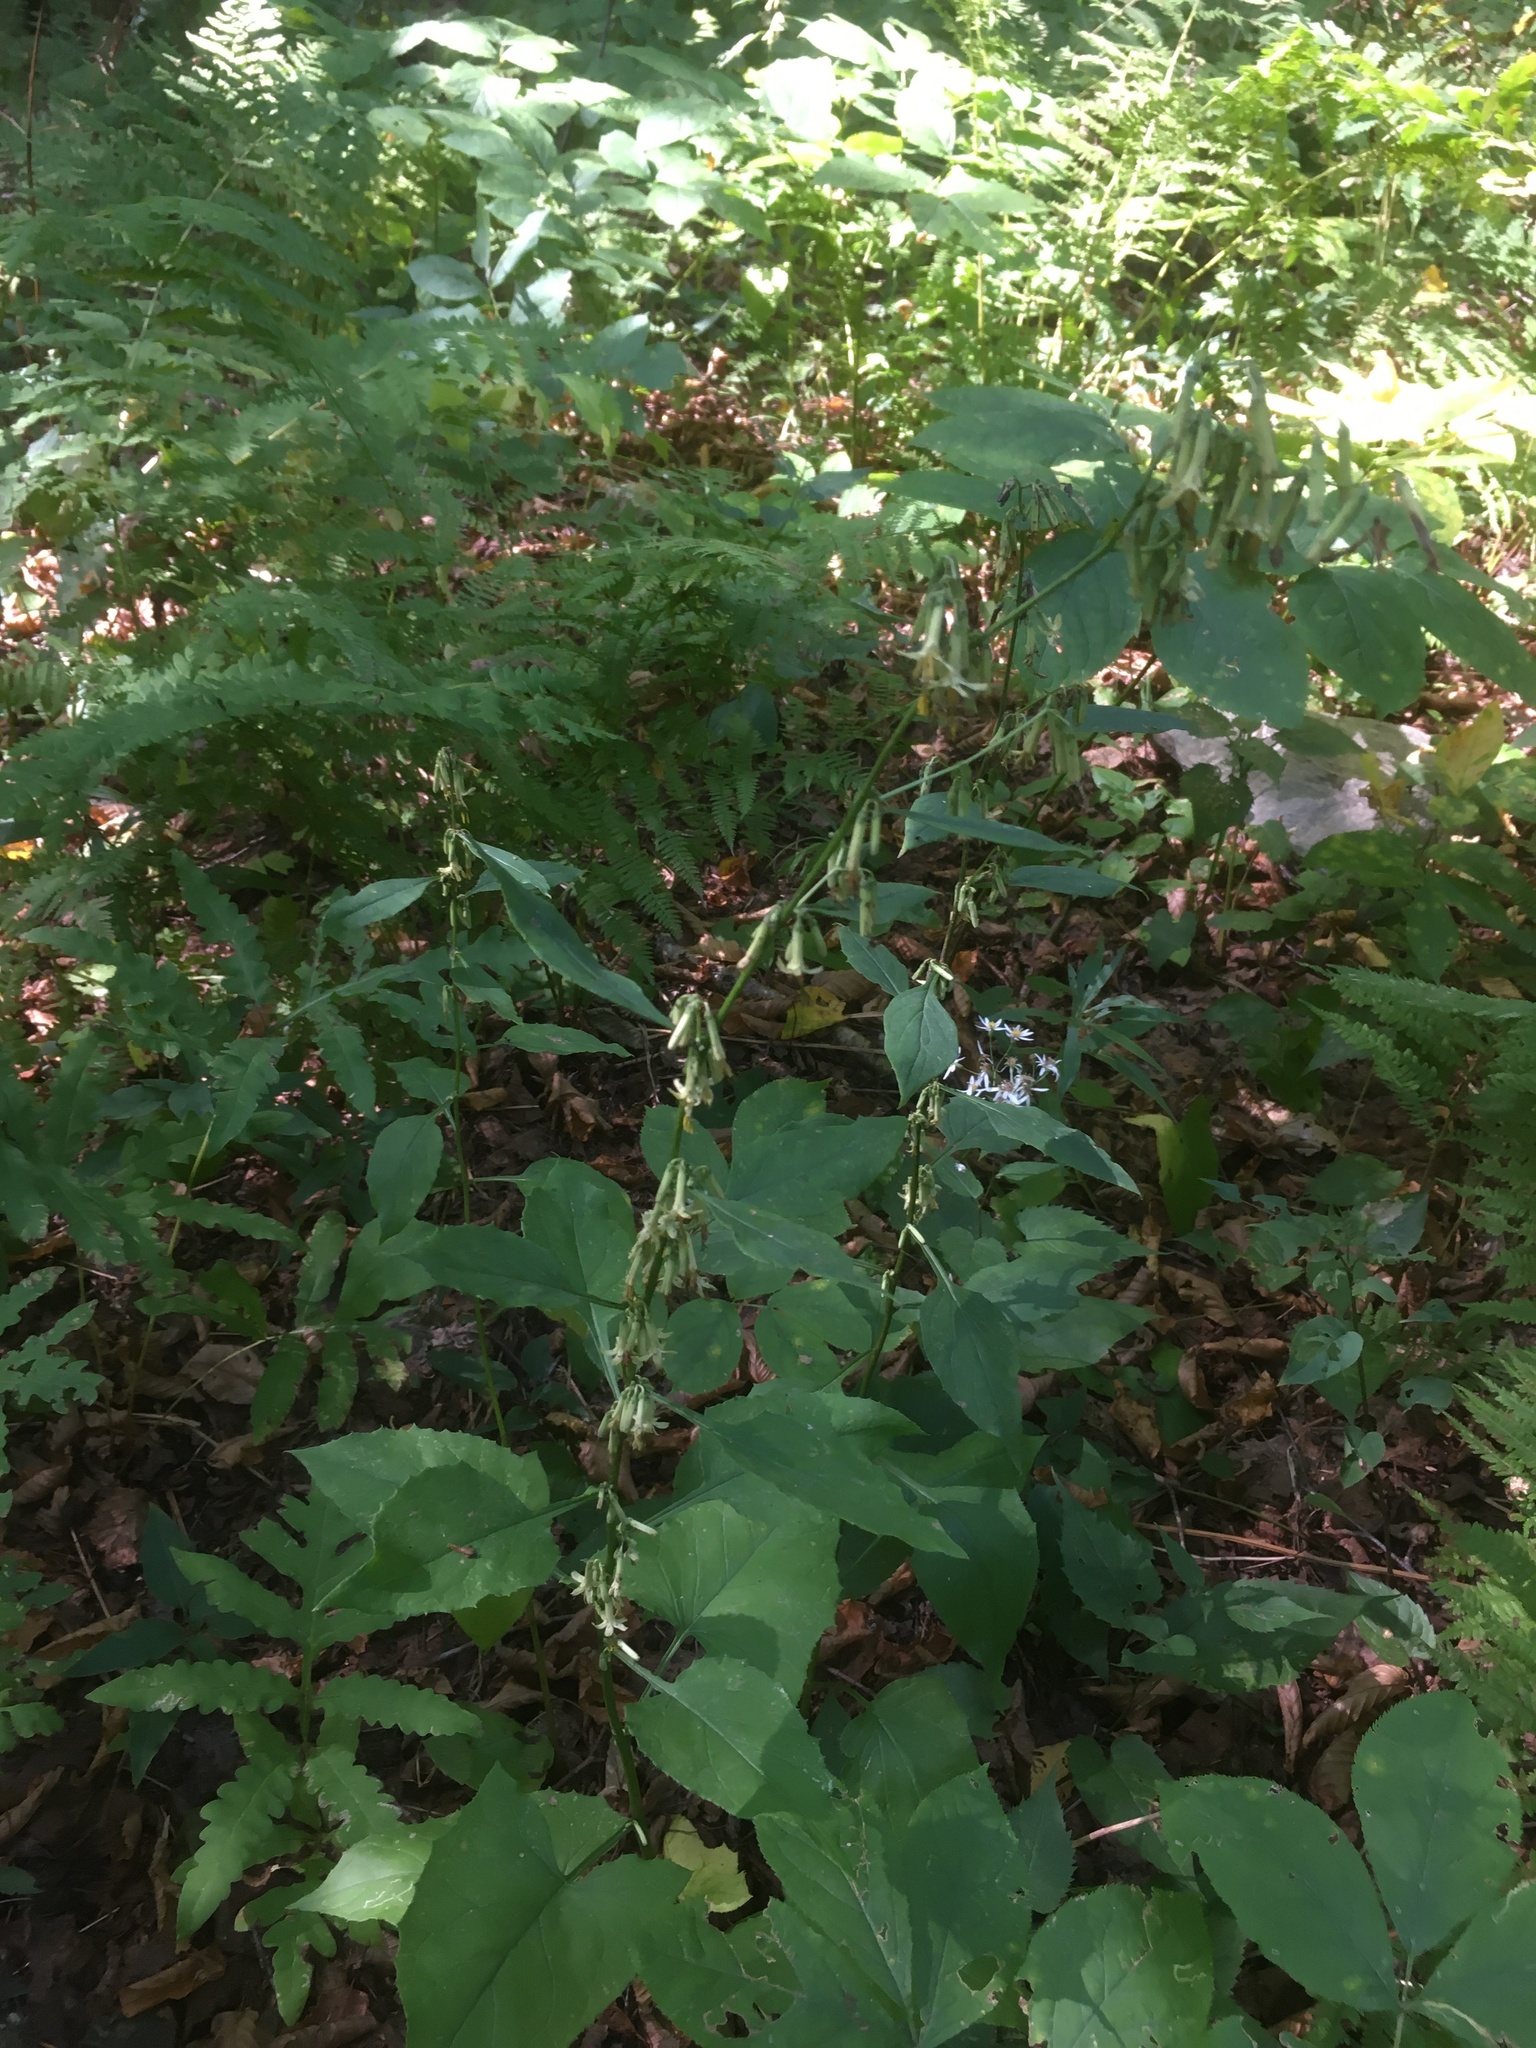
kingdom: Plantae
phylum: Tracheophyta
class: Magnoliopsida
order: Asterales
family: Asteraceae
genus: Nabalus
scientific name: Nabalus altissima
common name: Tall rattlesnakeroot
